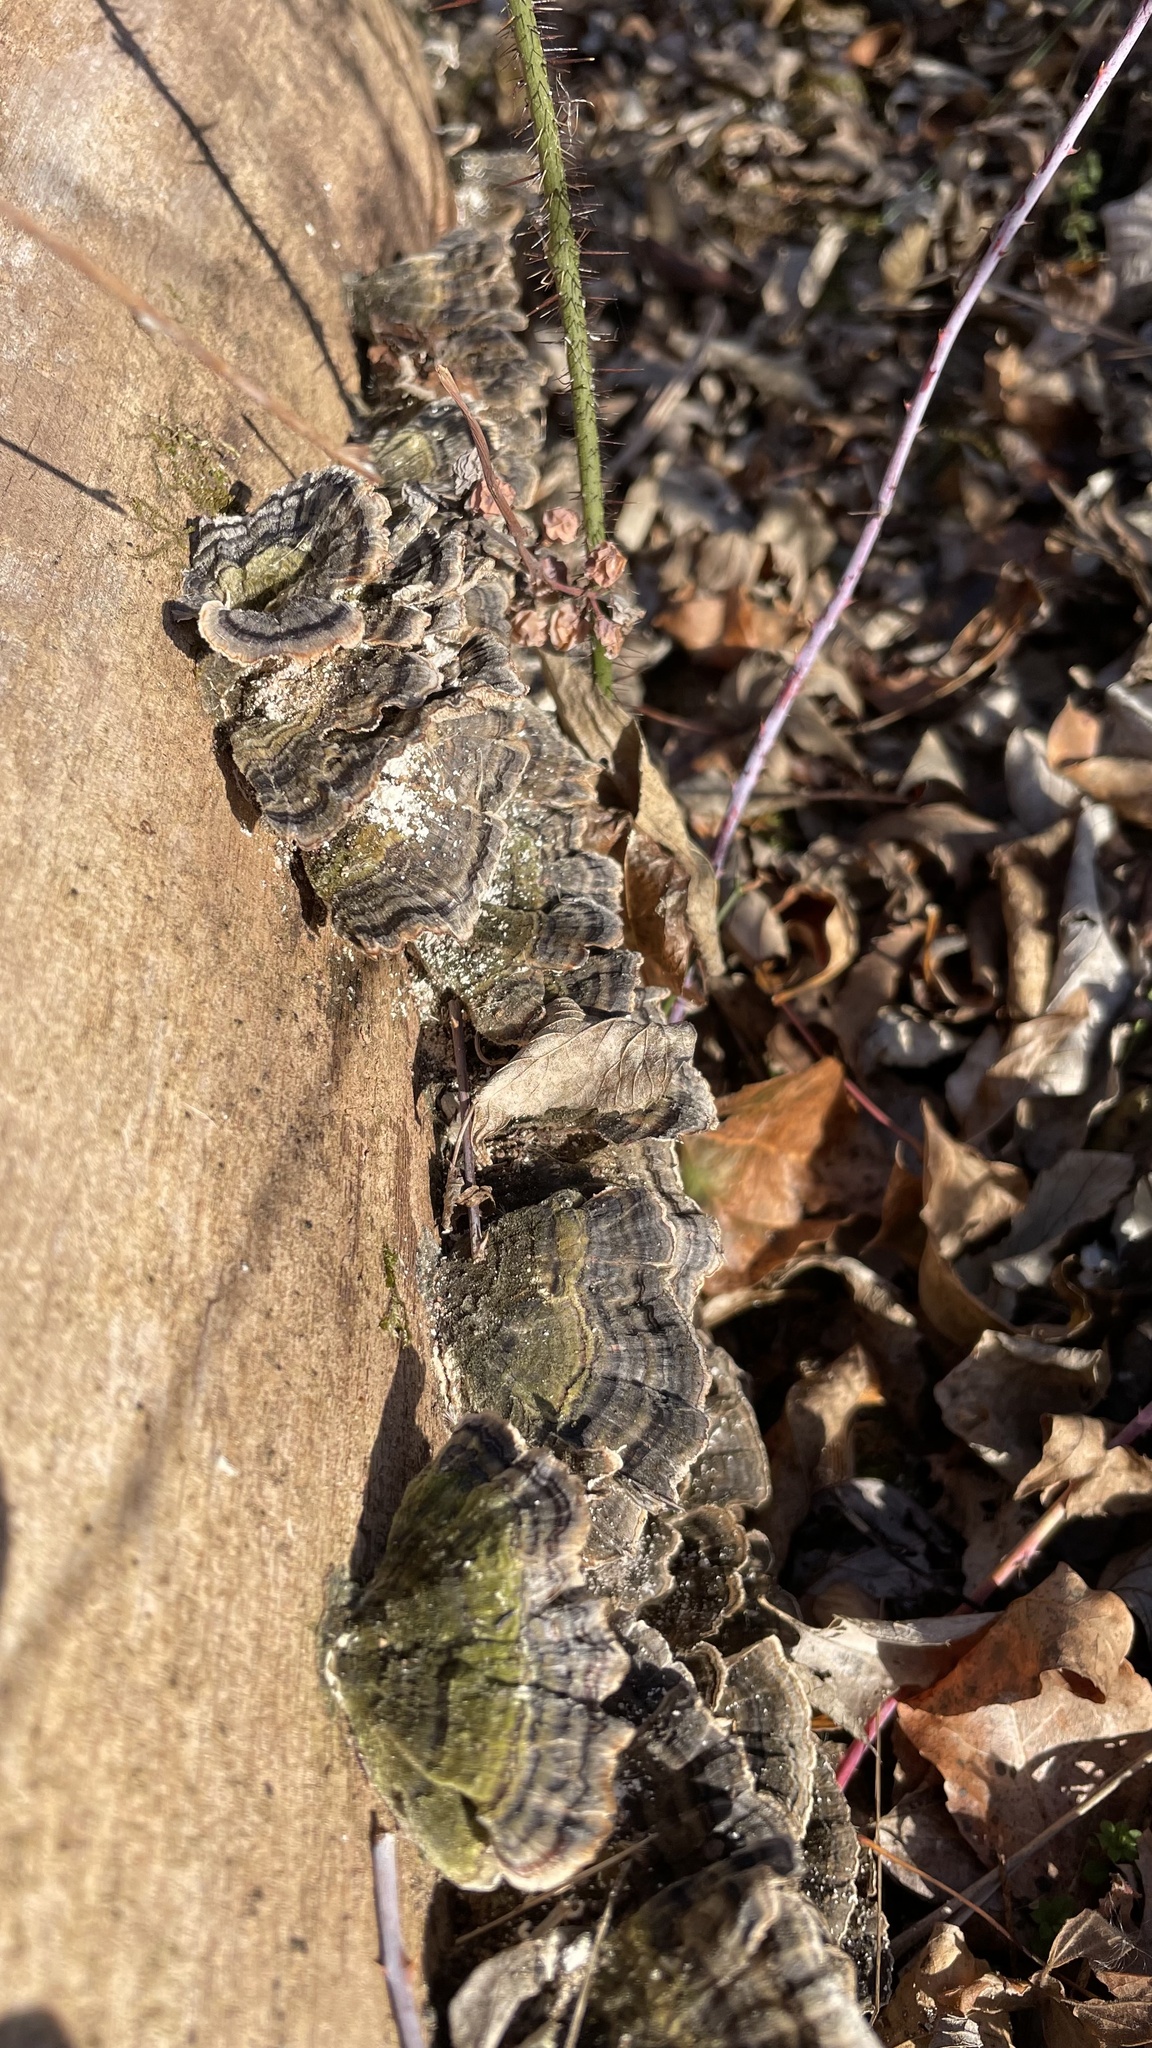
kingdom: Fungi
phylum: Basidiomycota
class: Agaricomycetes
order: Polyporales
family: Polyporaceae
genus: Trametes
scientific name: Trametes versicolor
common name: Turkeytail
